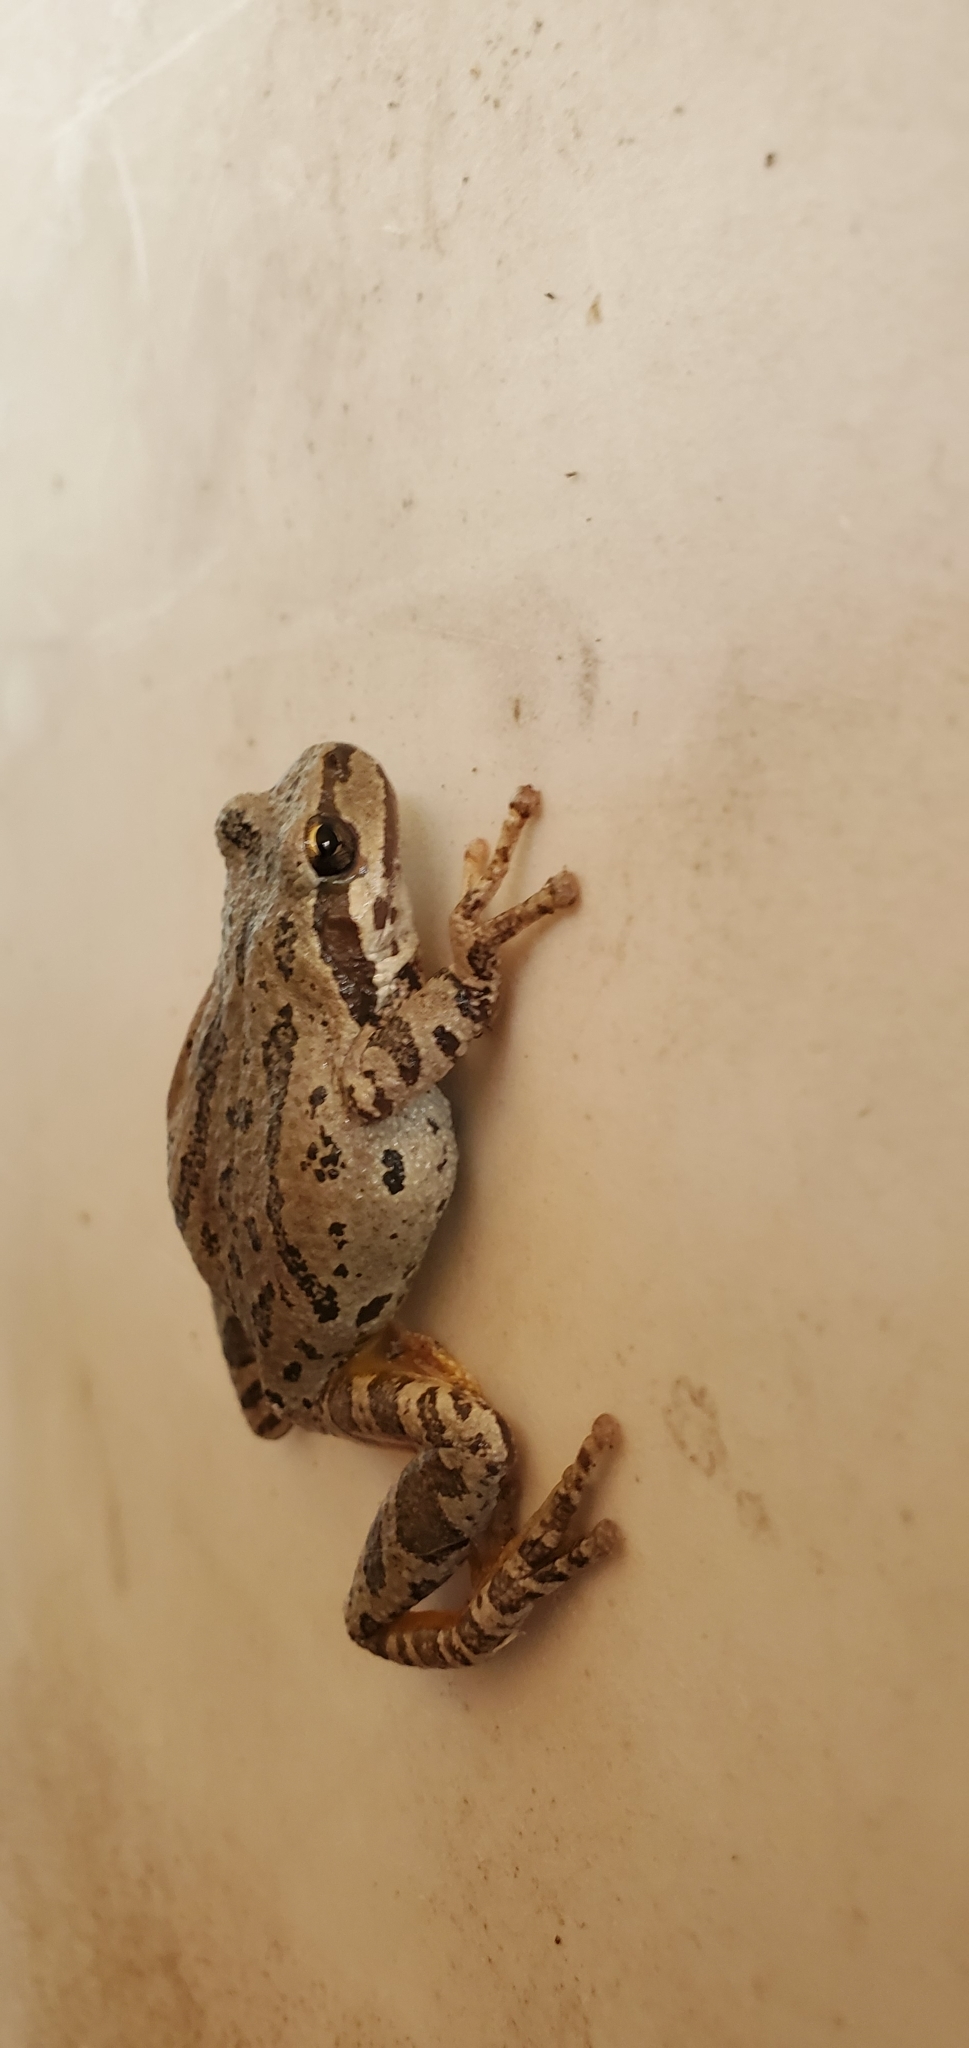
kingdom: Animalia
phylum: Chordata
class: Amphibia
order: Anura
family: Hylidae
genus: Pseudacris
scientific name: Pseudacris regilla
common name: Pacific chorus frog
